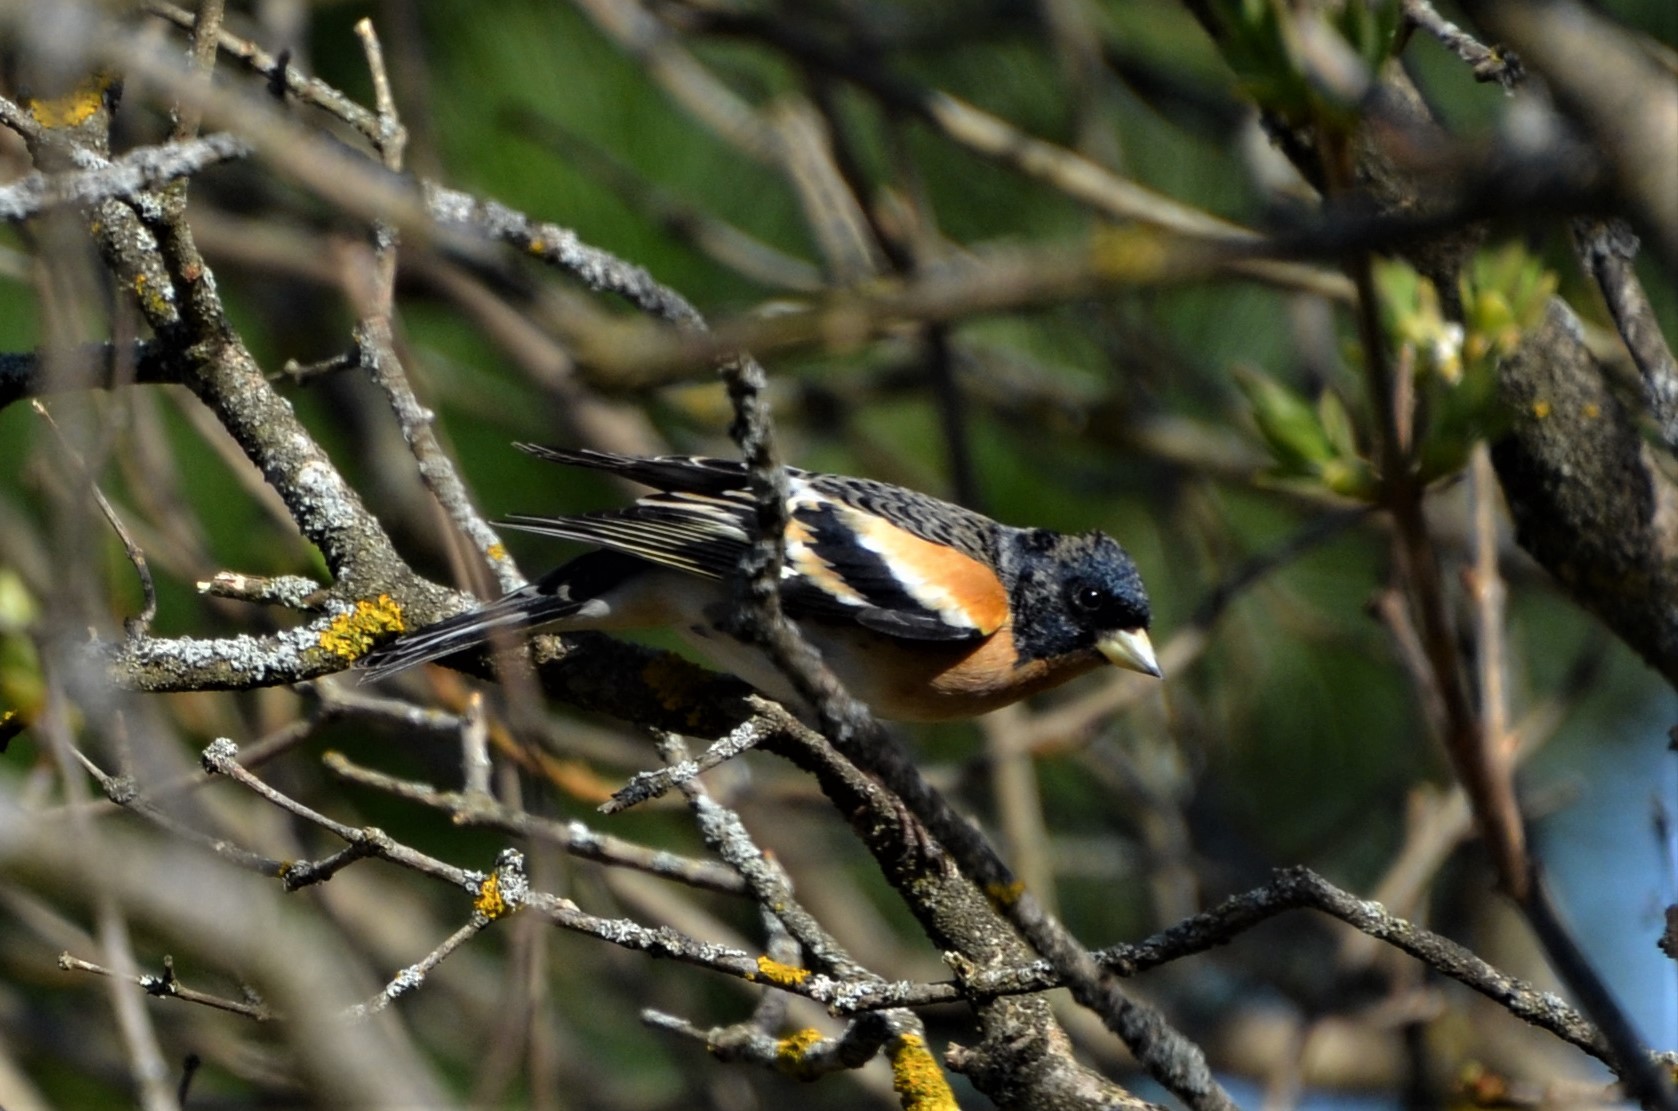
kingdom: Animalia
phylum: Chordata
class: Aves
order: Passeriformes
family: Fringillidae
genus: Fringilla
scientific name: Fringilla montifringilla
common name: Brambling
